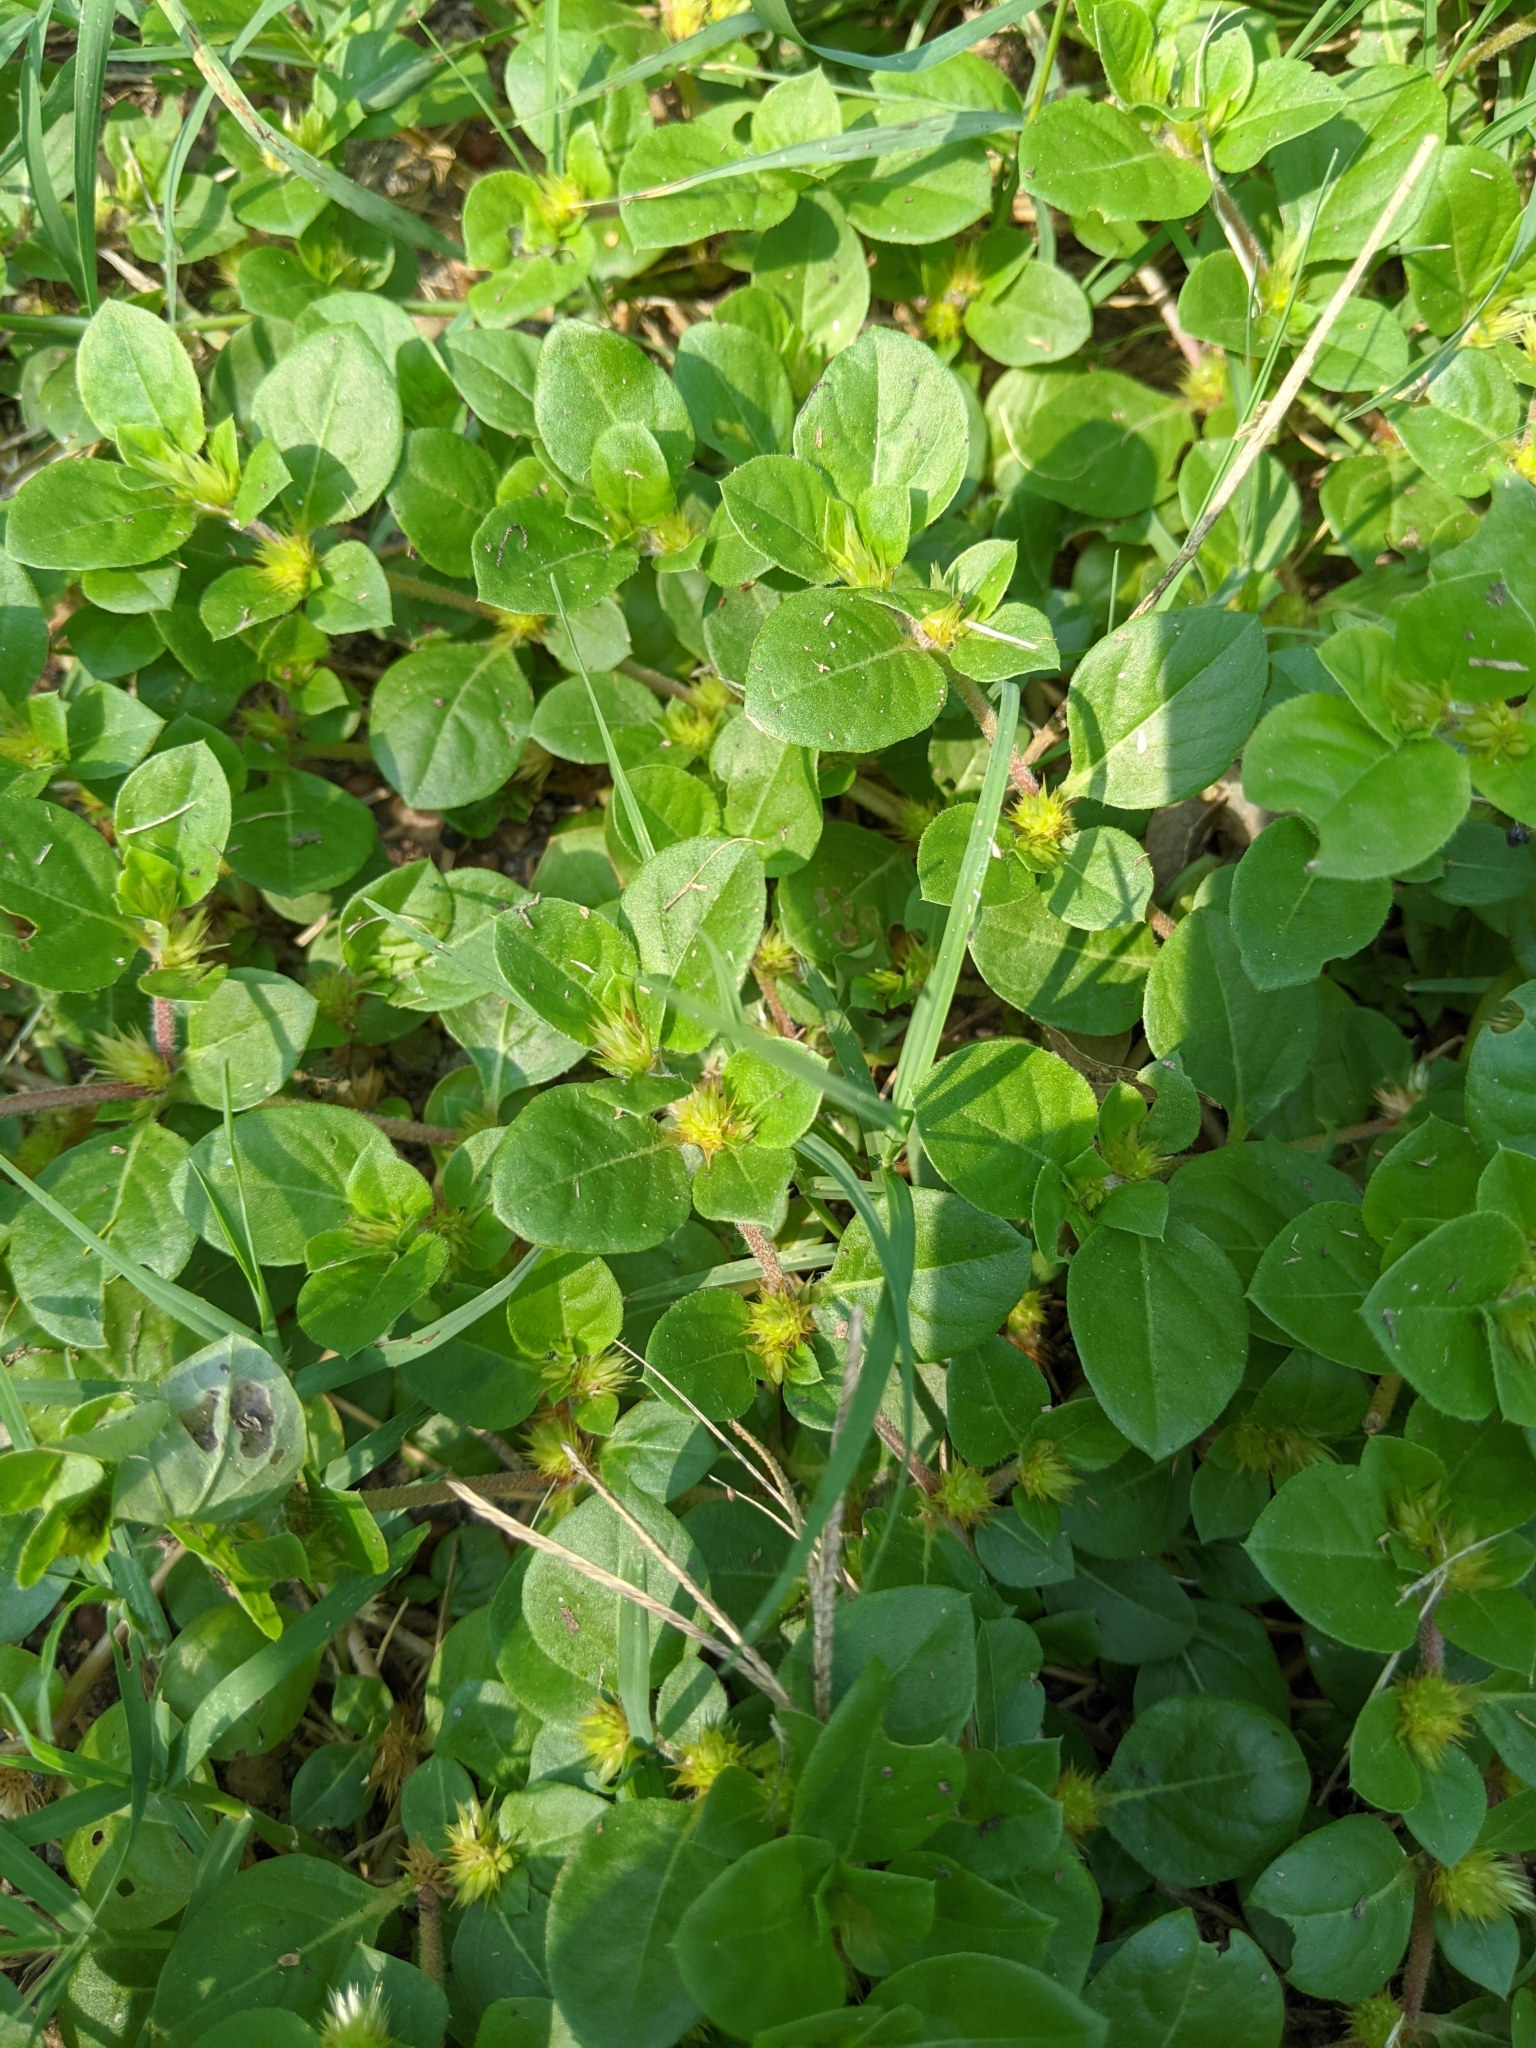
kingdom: Plantae
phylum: Tracheophyta
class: Magnoliopsida
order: Caryophyllales
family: Amaranthaceae
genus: Alternanthera
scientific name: Alternanthera pungens
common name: Khakiweed
